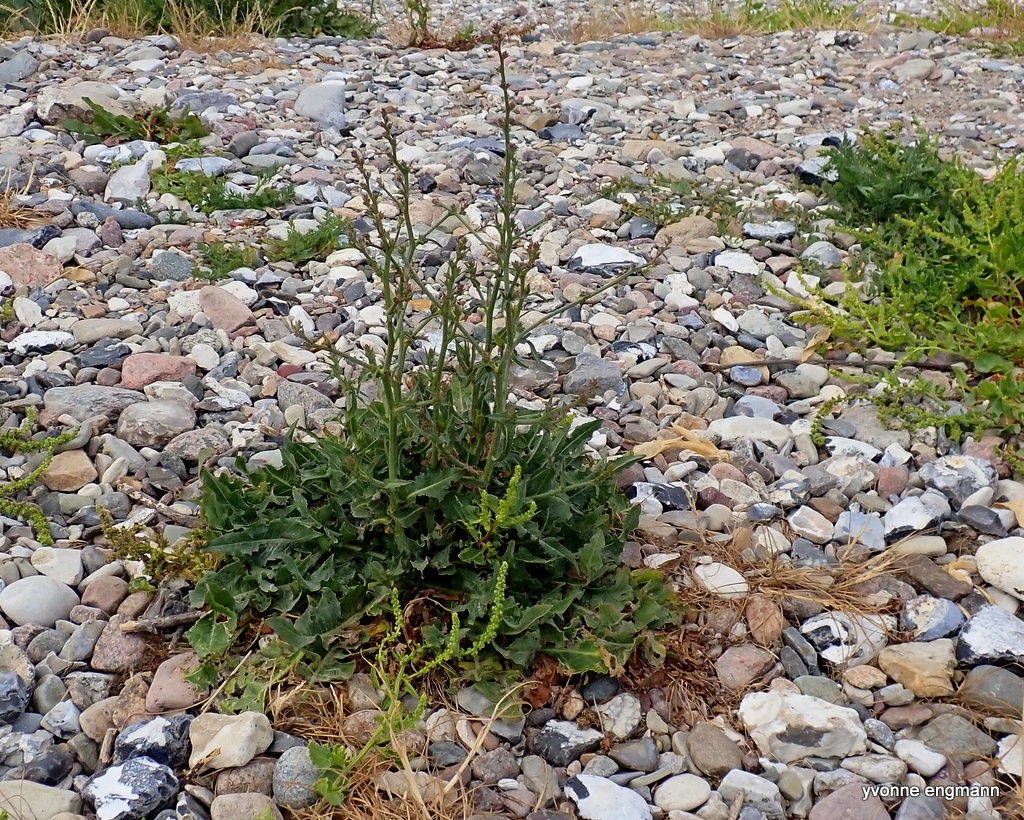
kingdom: Plantae
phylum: Tracheophyta
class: Magnoliopsida
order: Asterales
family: Asteraceae
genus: Cichorium
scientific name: Cichorium intybus
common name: Chicory
